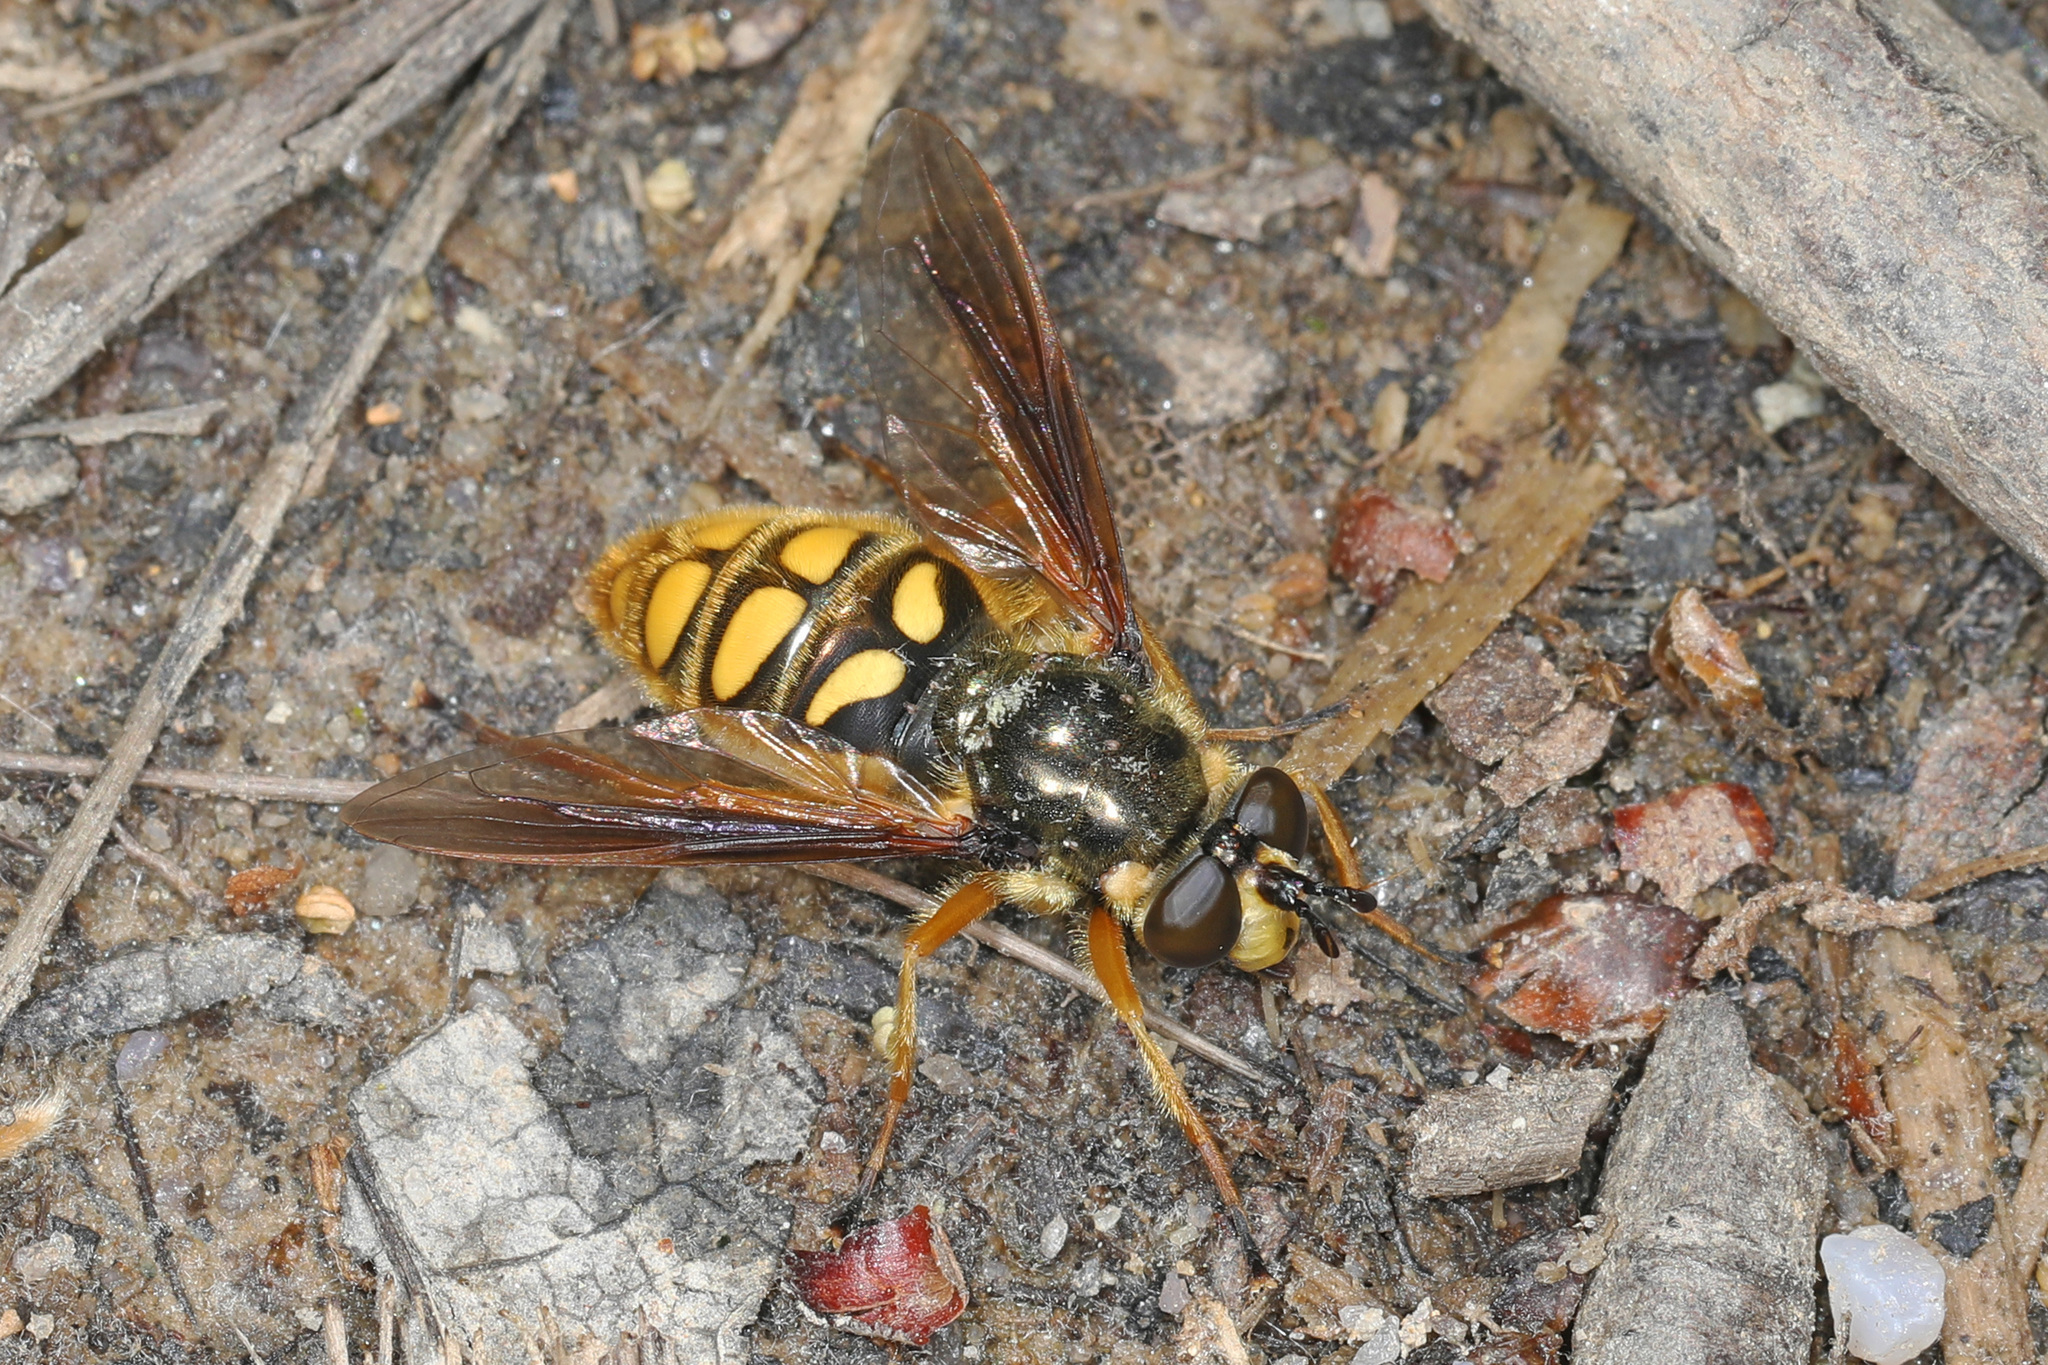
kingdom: Animalia
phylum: Arthropoda
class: Insecta
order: Diptera
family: Syrphidae
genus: Somula
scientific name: Somula decora
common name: Spotted wood fly
